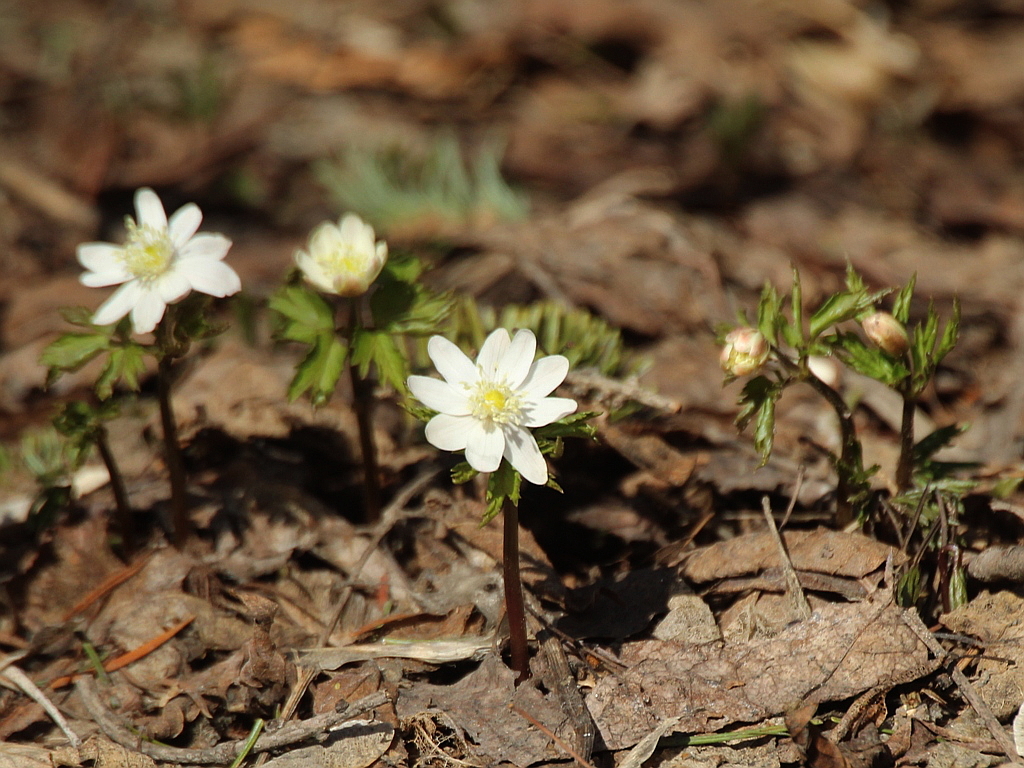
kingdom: Plantae
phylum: Tracheophyta
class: Magnoliopsida
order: Ranunculales
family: Ranunculaceae
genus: Anemone
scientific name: Anemone altaica
